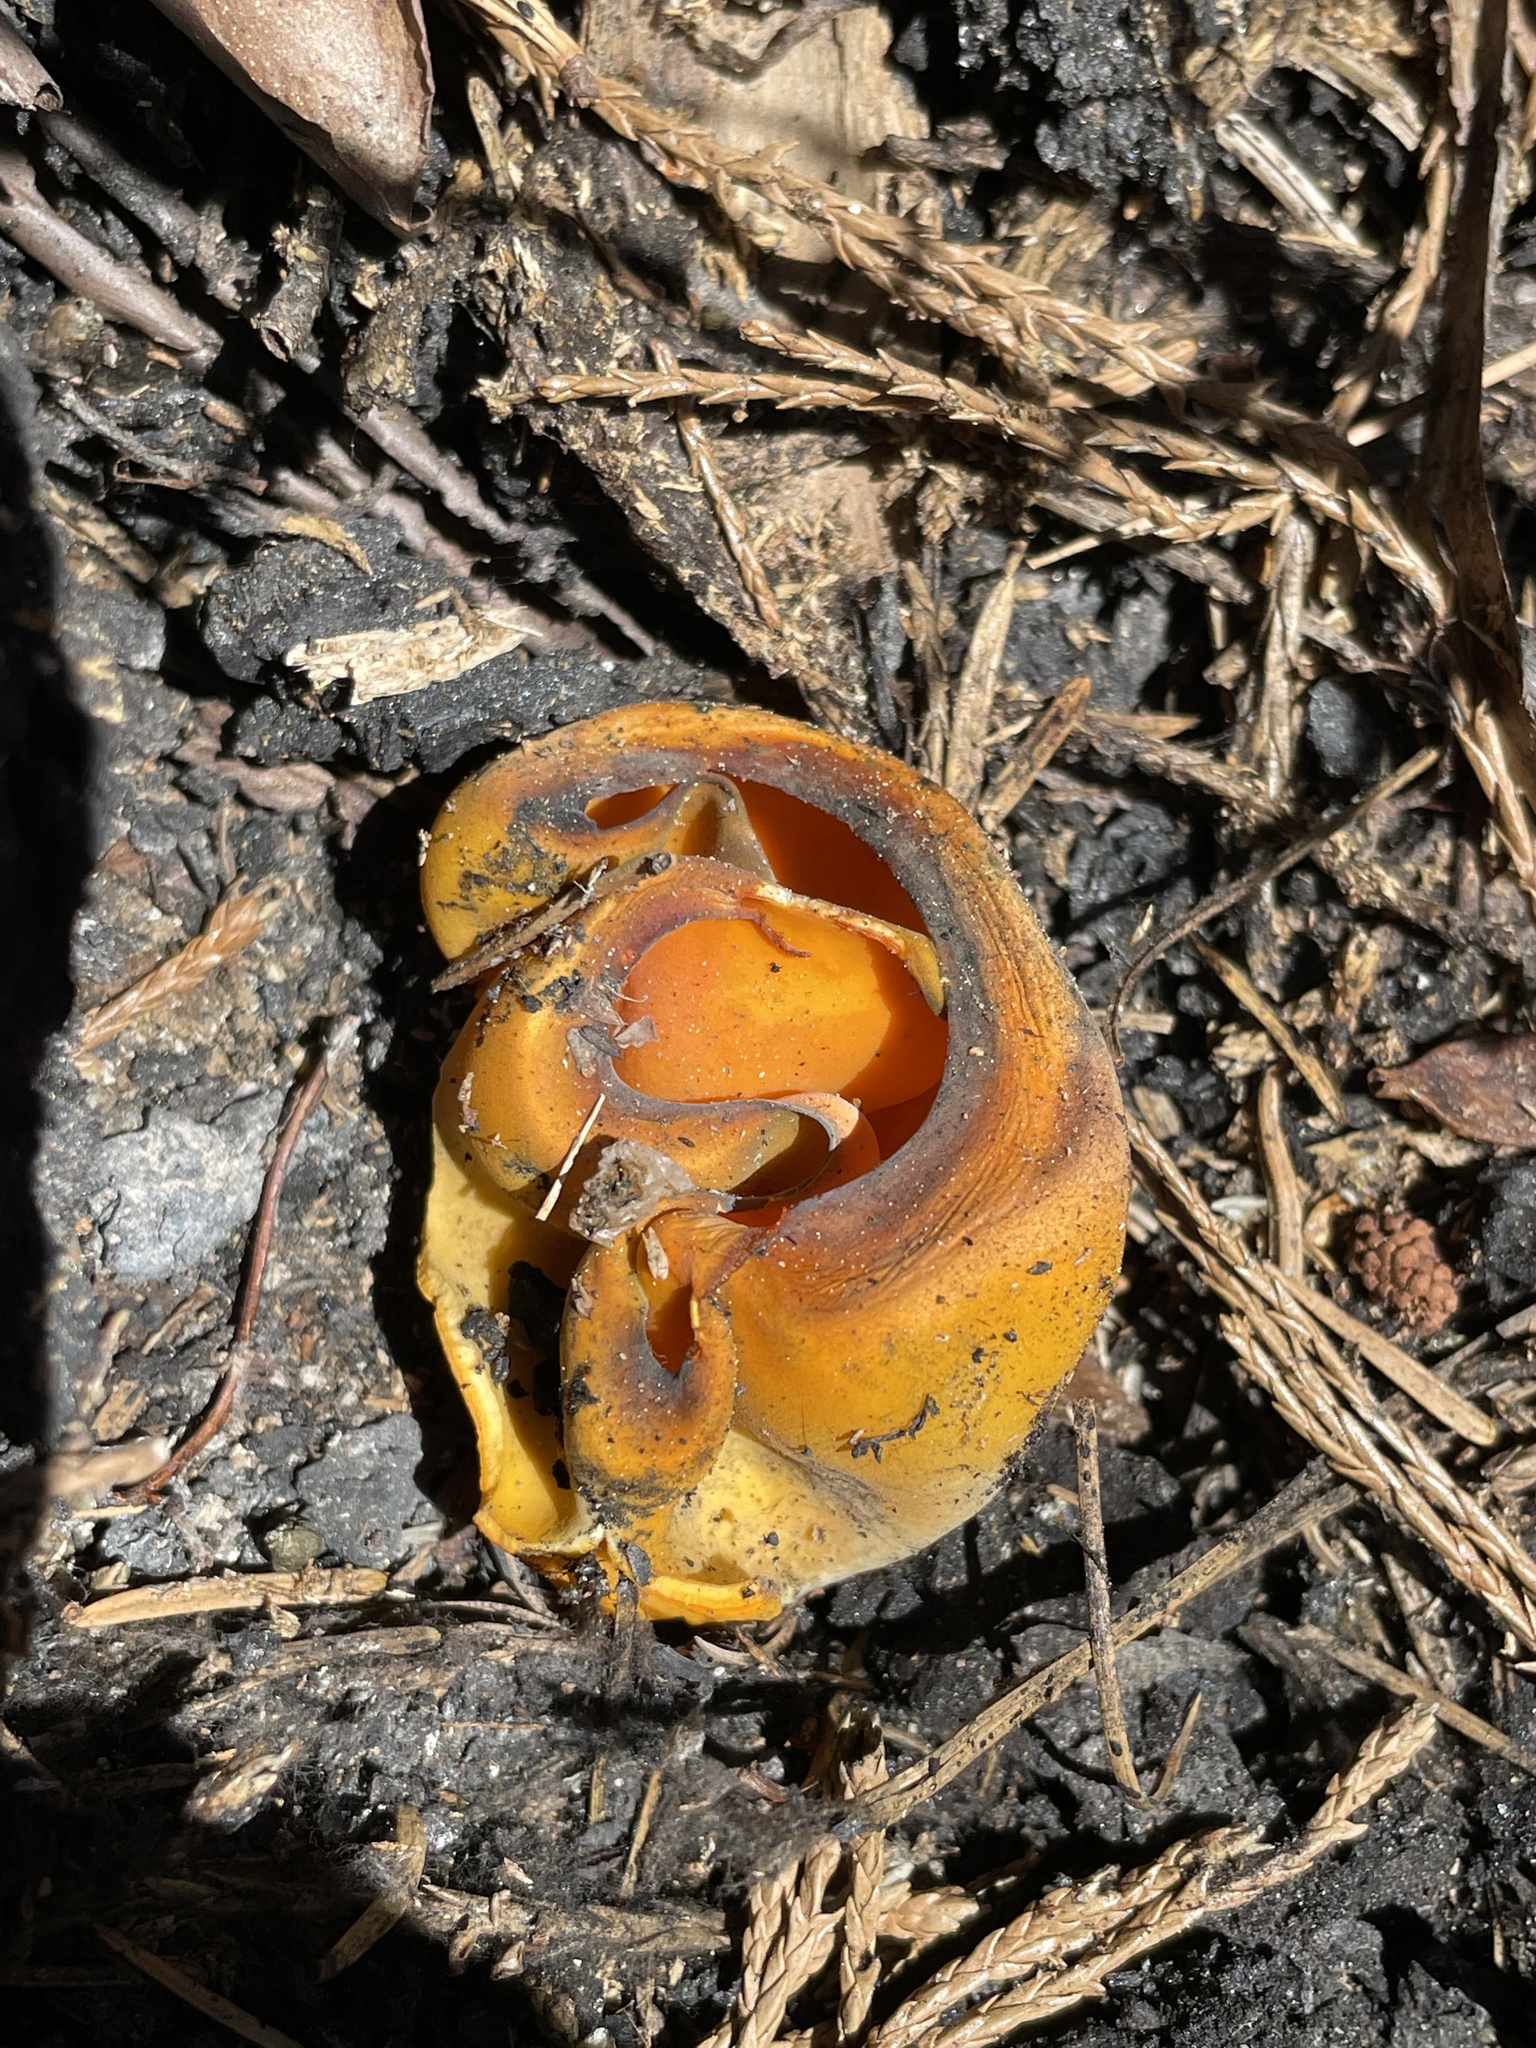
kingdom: Fungi
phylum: Ascomycota
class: Pezizomycetes
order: Pezizales
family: Caloscyphaceae
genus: Caloscypha
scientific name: Caloscypha fulgens
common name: Golden cup
